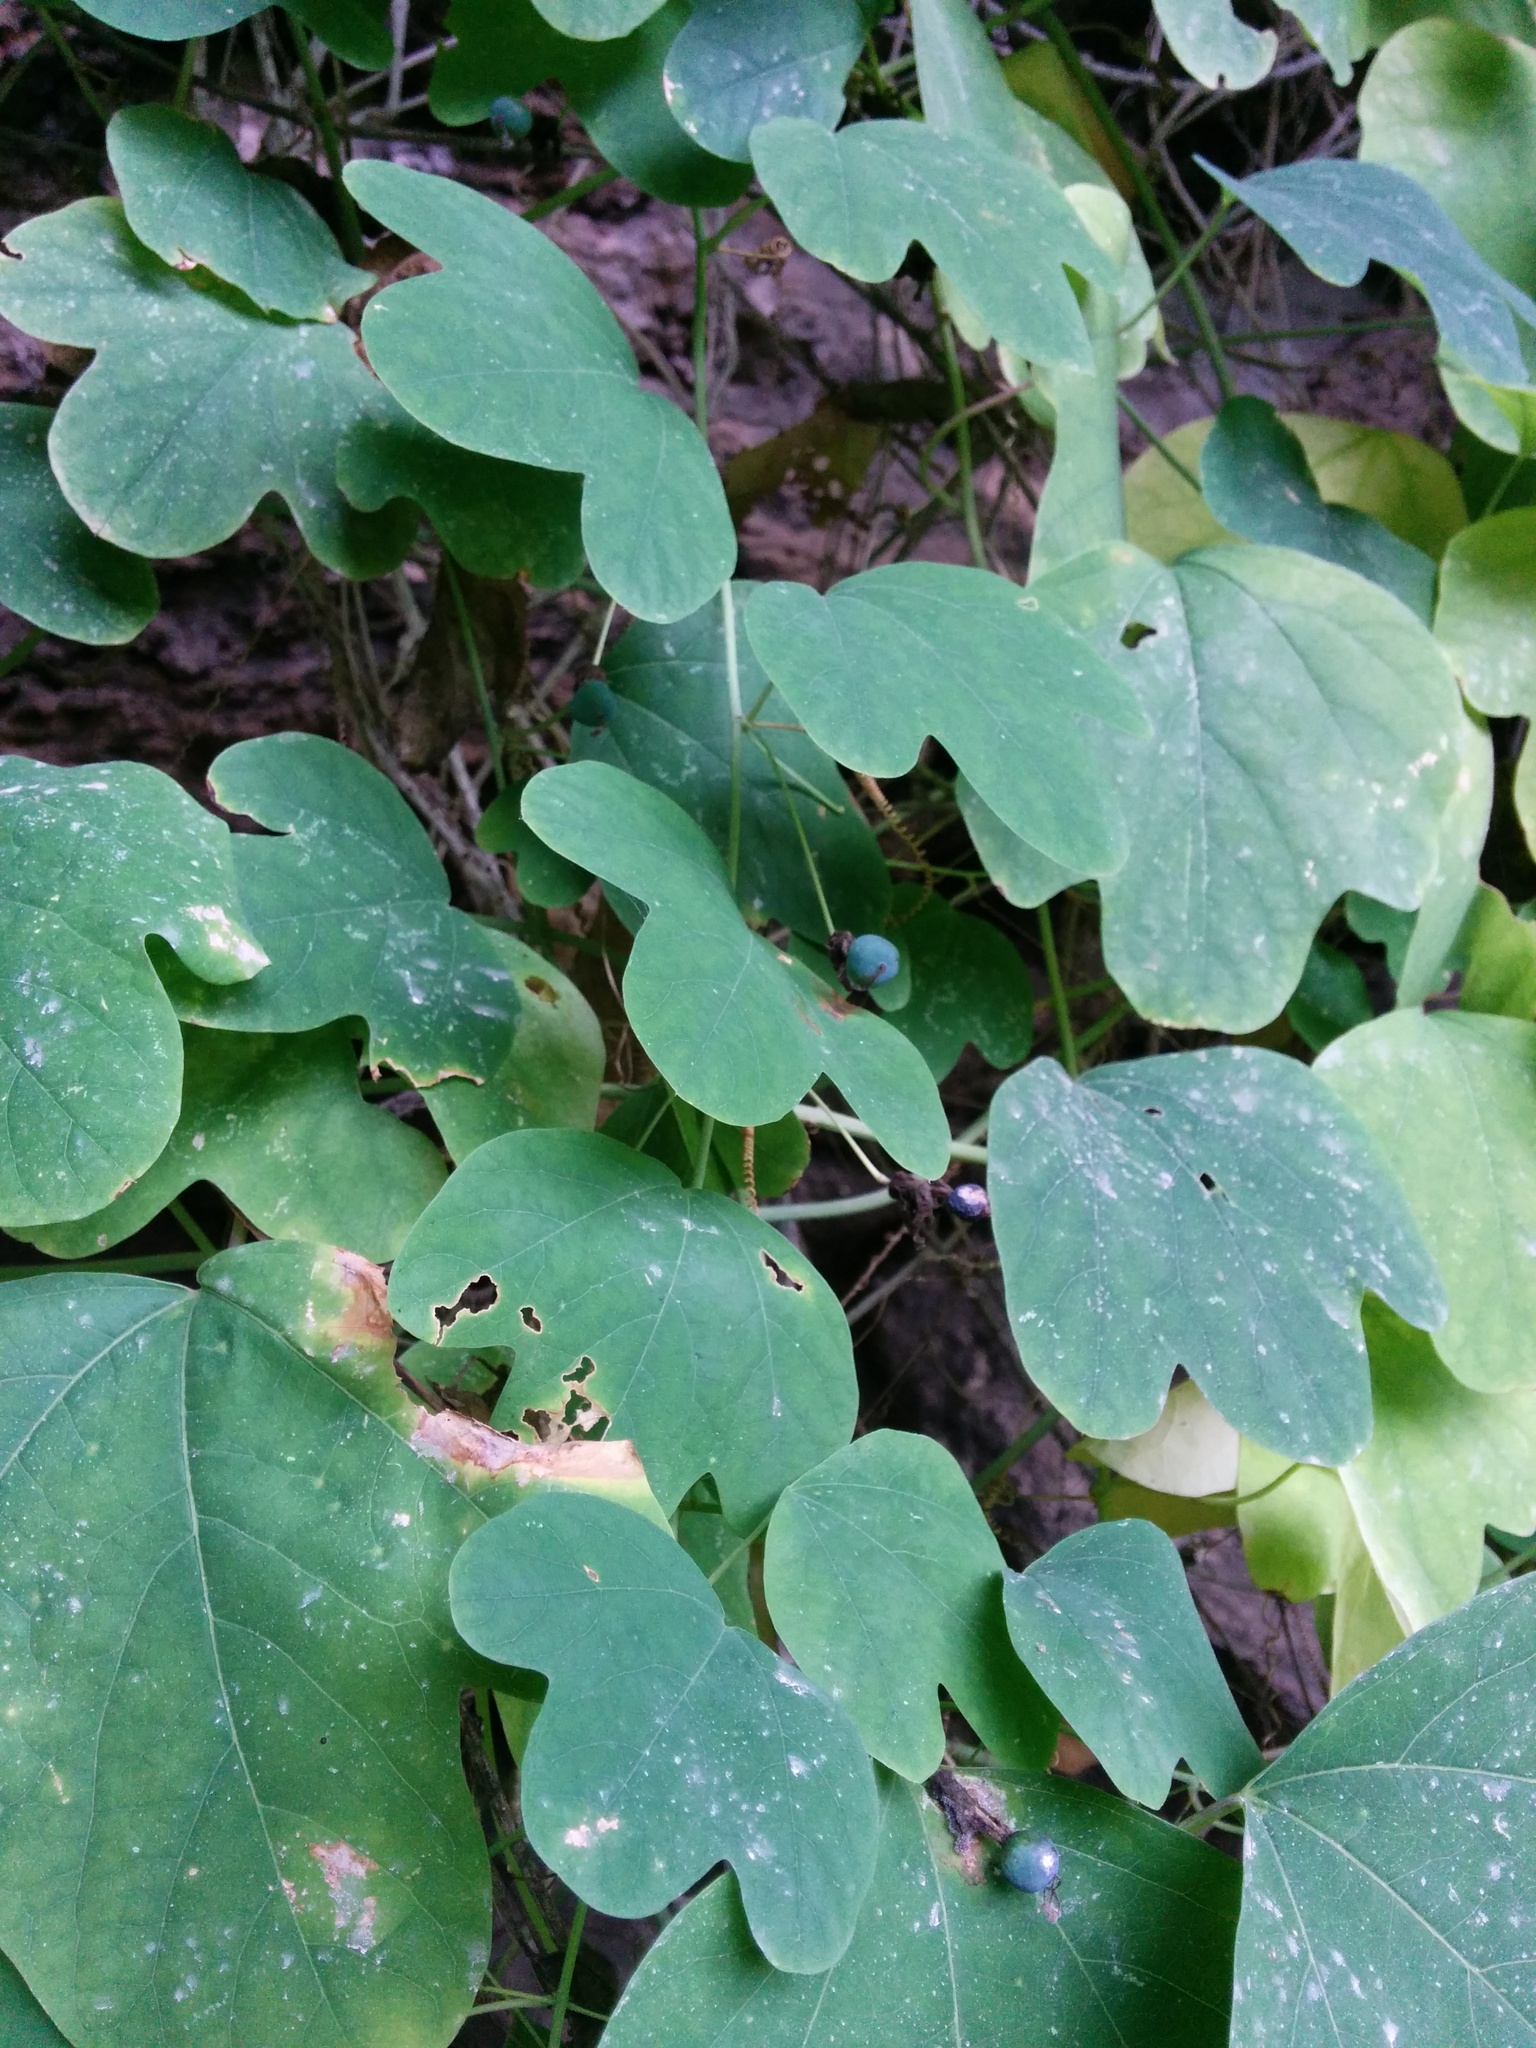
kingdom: Plantae
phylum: Tracheophyta
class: Magnoliopsida
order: Malpighiales
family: Passifloraceae
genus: Passiflora
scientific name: Passiflora affinis
